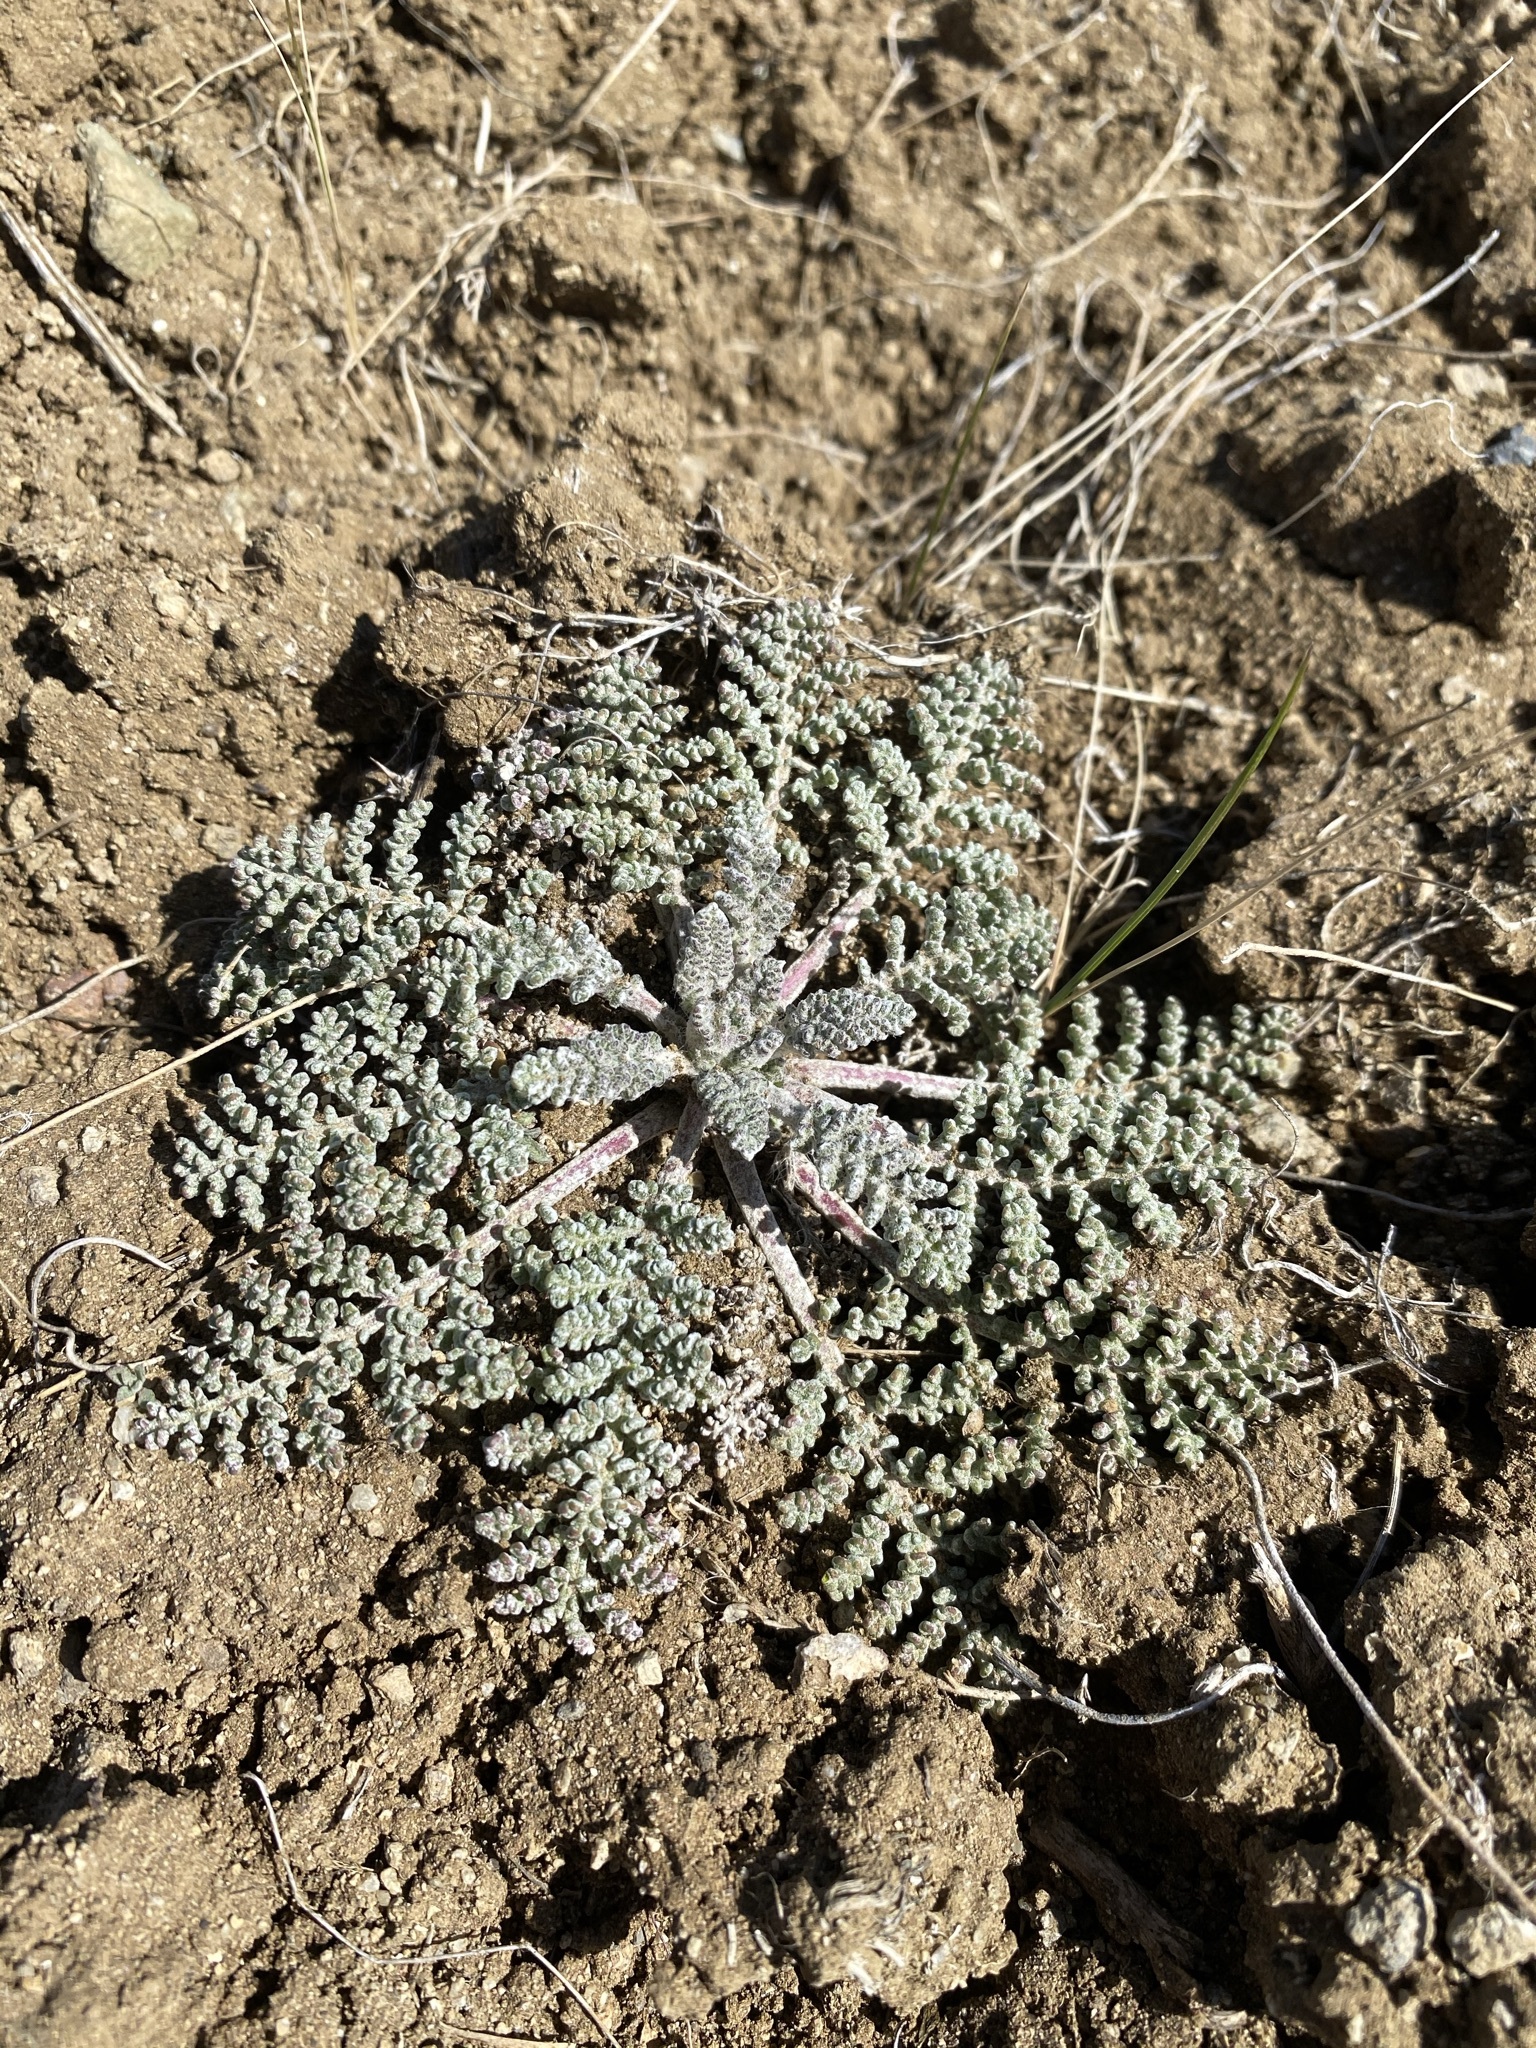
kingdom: Plantae
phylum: Tracheophyta
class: Magnoliopsida
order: Asterales
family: Asteraceae
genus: Chaenactis
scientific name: Chaenactis douglasii
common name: Hoary pincushion
